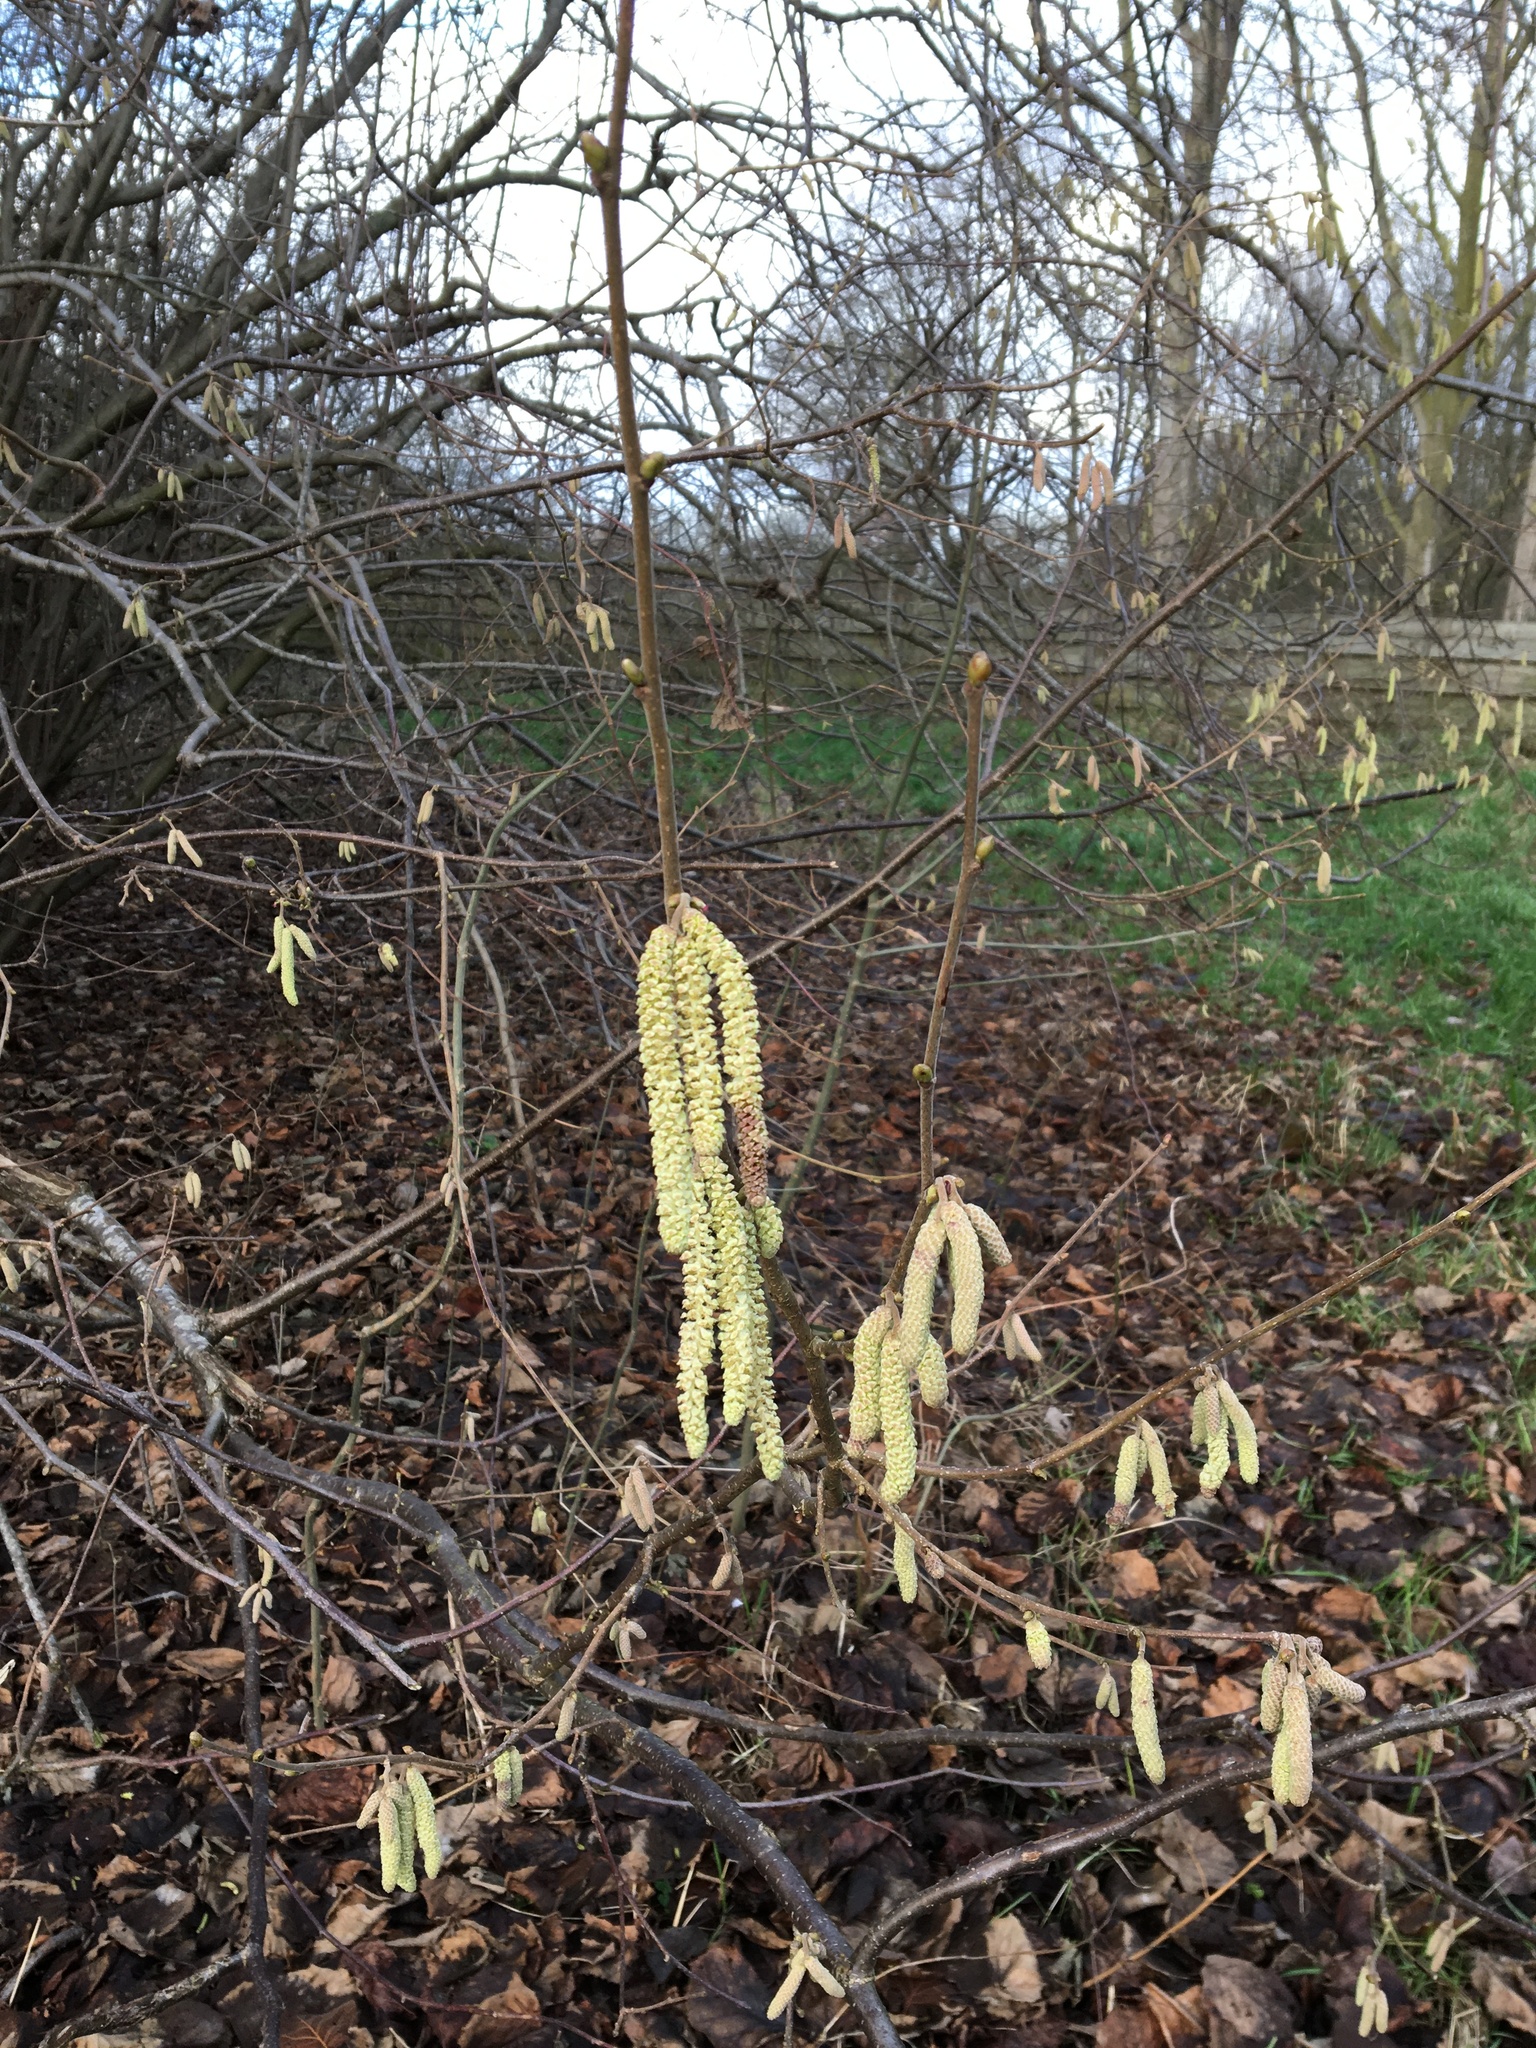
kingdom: Plantae
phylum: Tracheophyta
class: Magnoliopsida
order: Fagales
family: Betulaceae
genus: Corylus
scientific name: Corylus avellana
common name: European hazel
